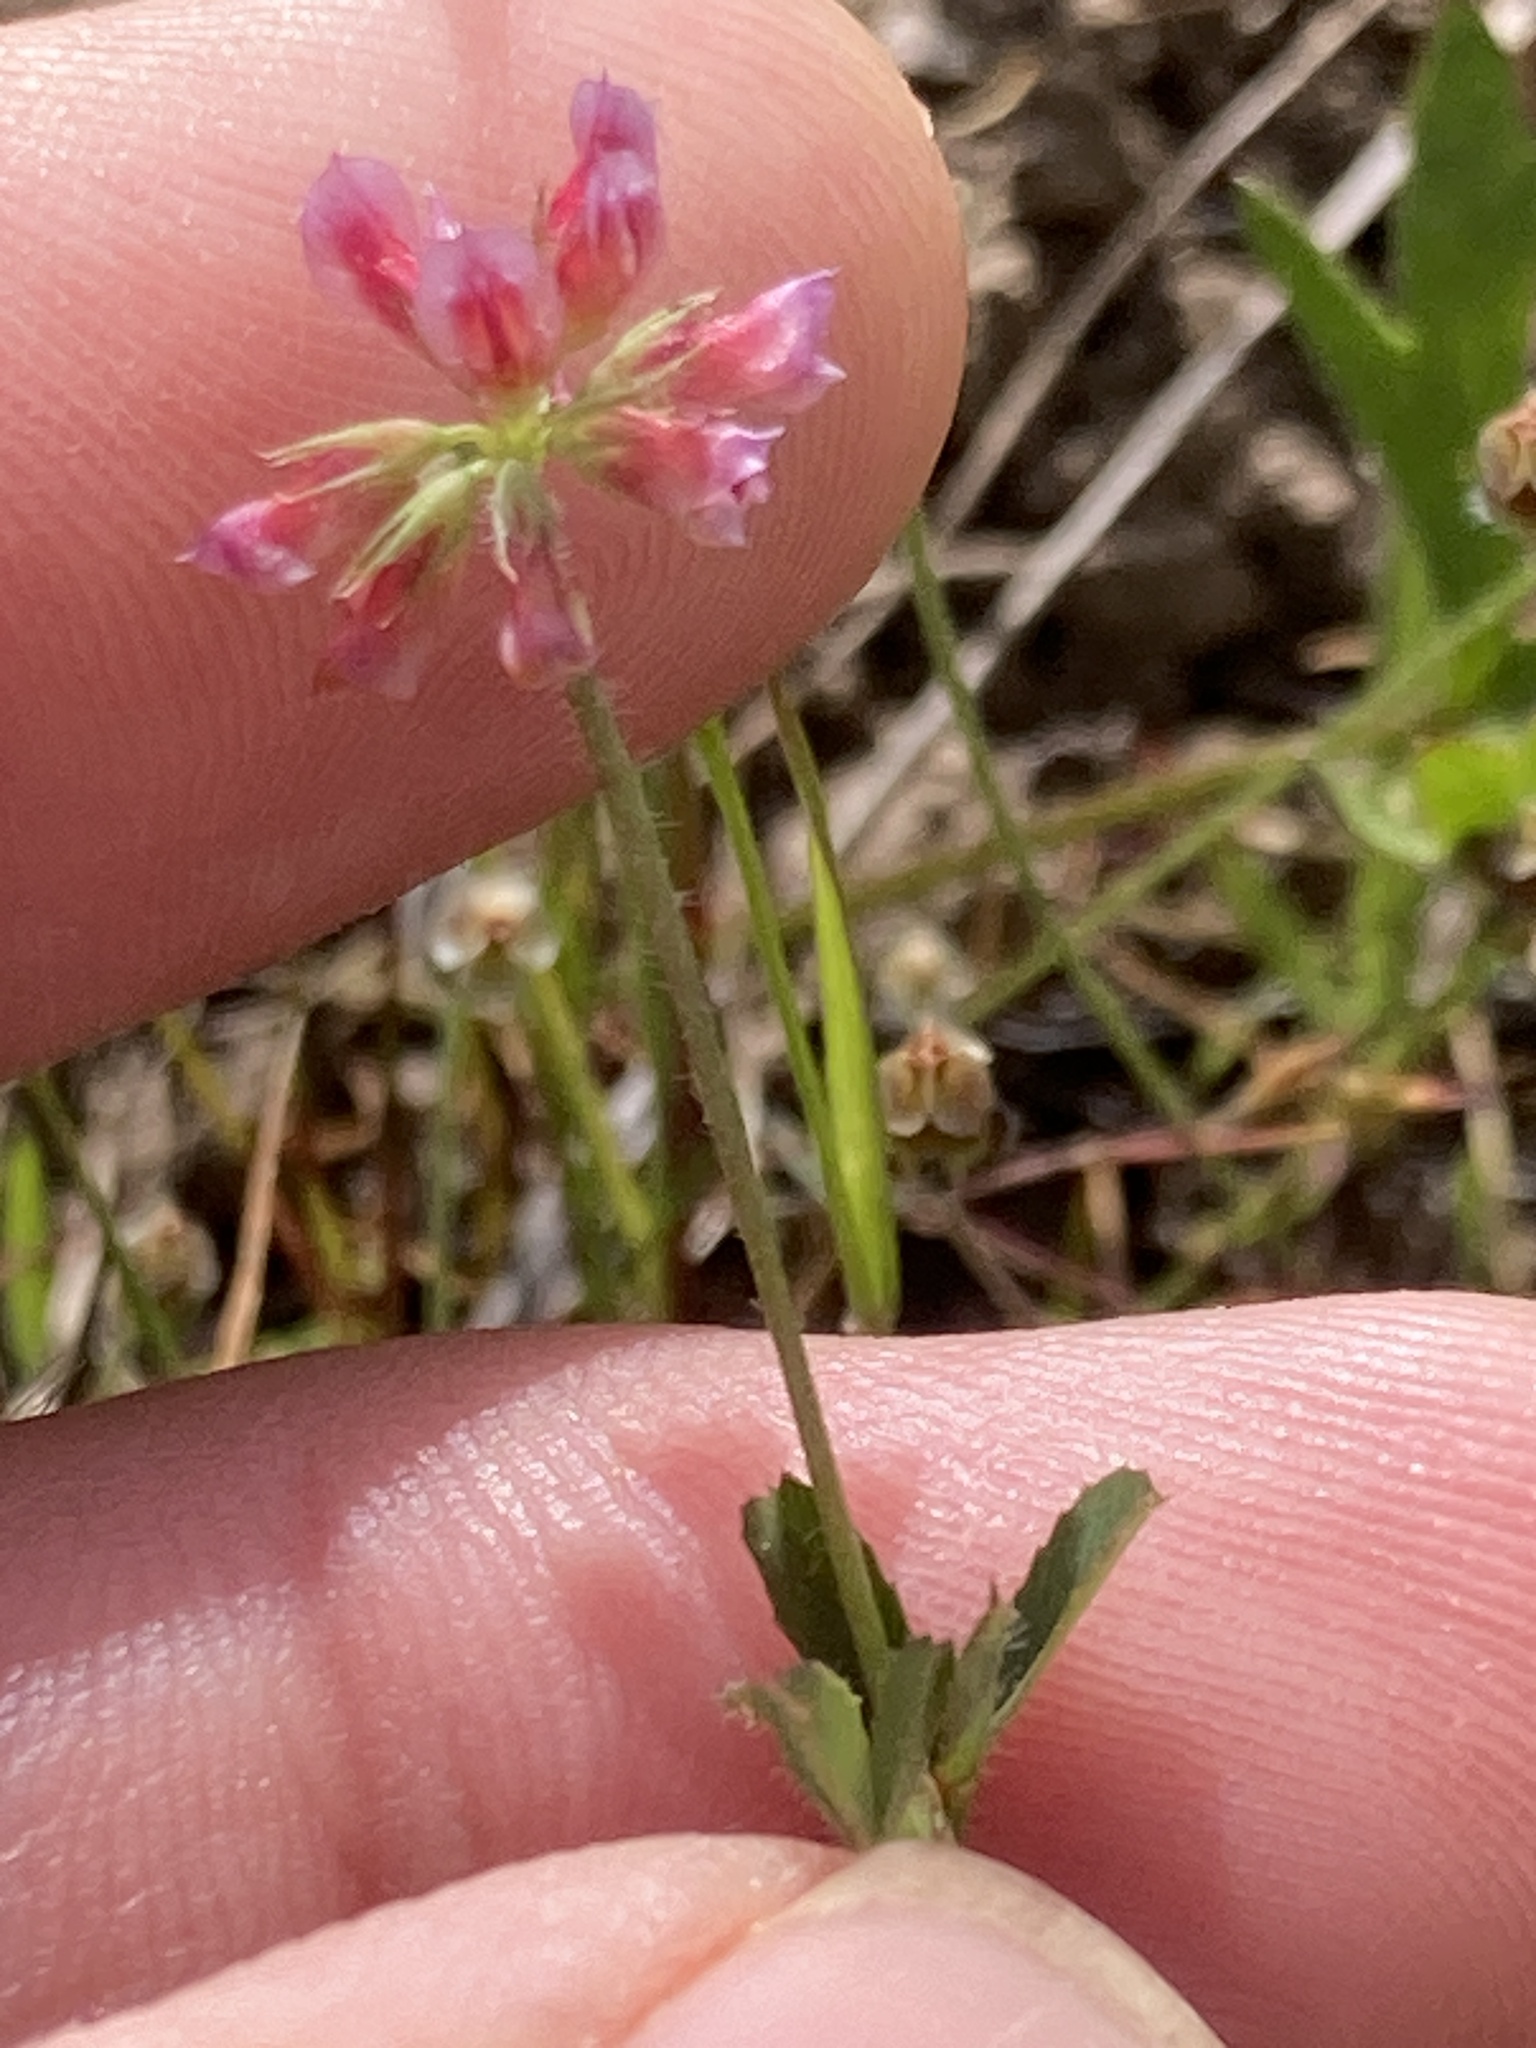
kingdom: Plantae
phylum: Tracheophyta
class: Magnoliopsida
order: Fabales
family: Fabaceae
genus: Trifolium
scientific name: Trifolium bifidum
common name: Notch-leaf clover
